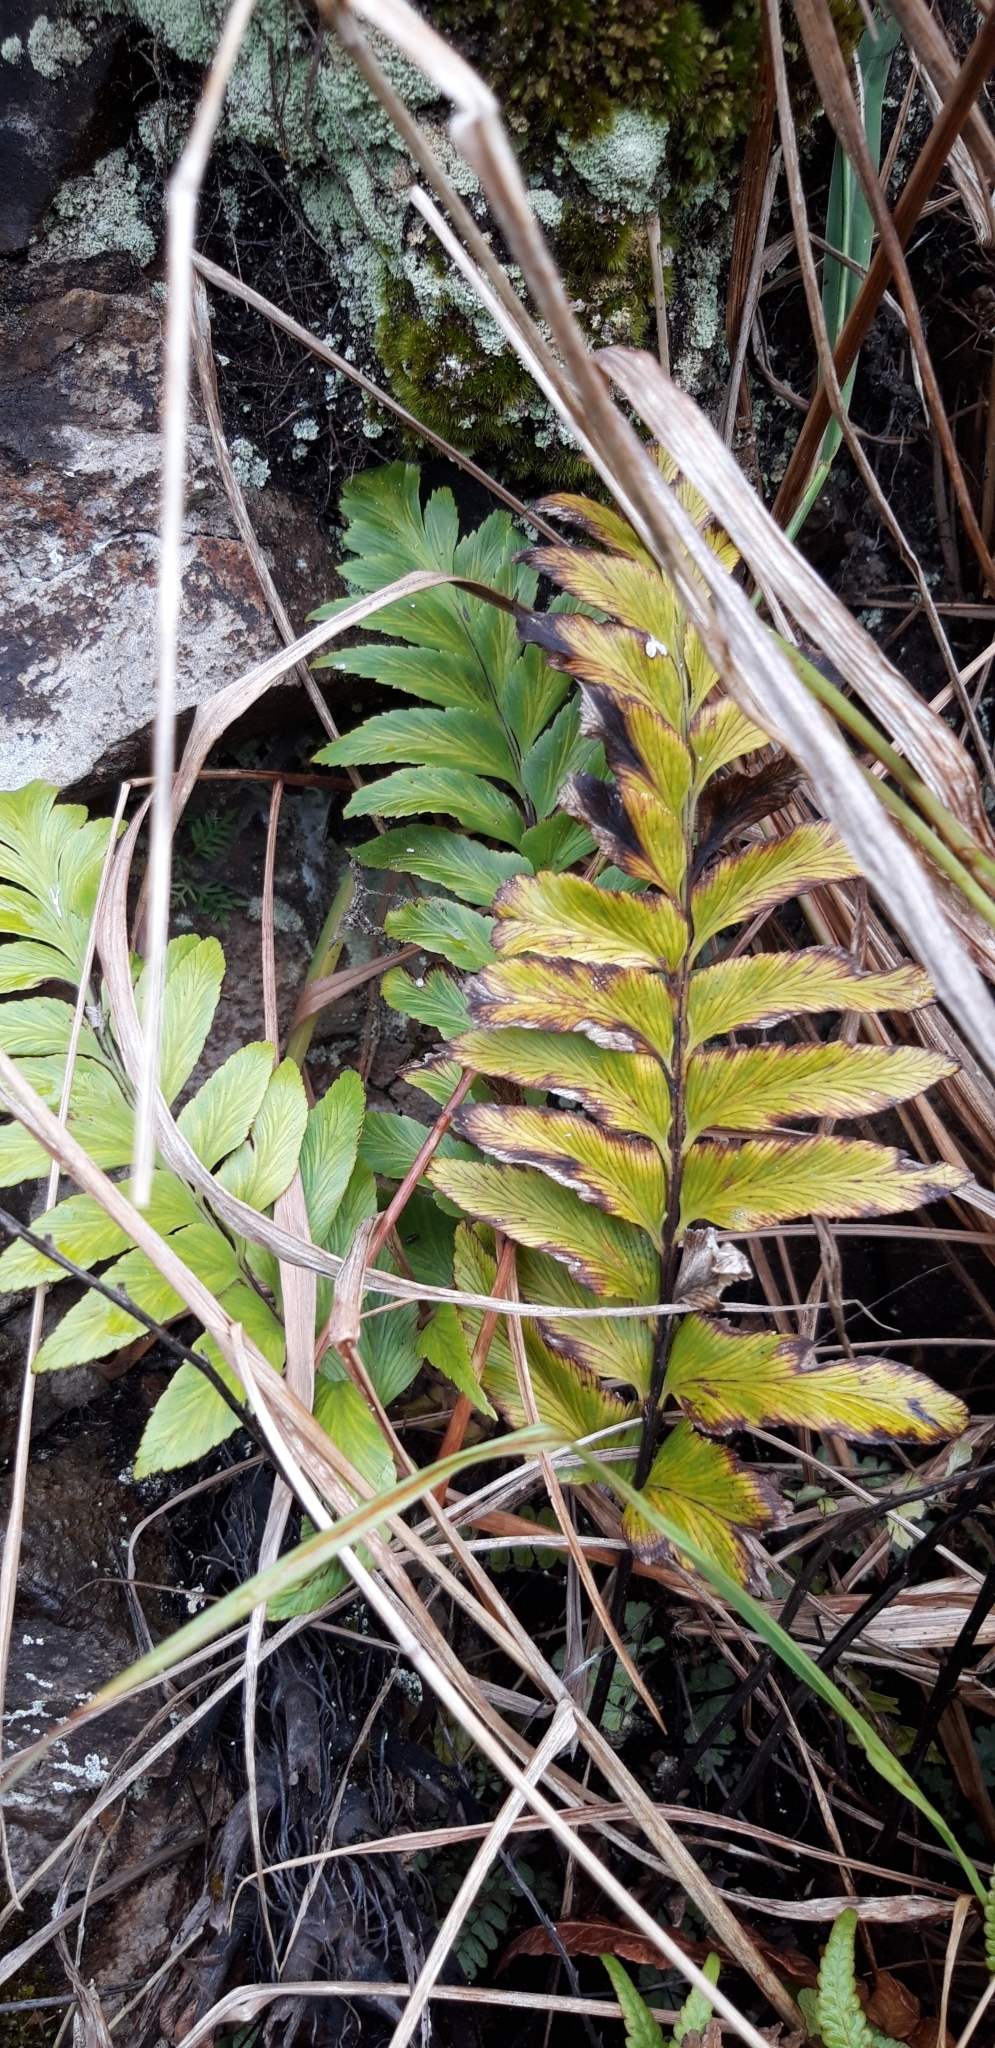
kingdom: Plantae
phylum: Tracheophyta
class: Polypodiopsida
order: Polypodiales
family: Aspleniaceae
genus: Asplenium
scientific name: Asplenium platybasis
